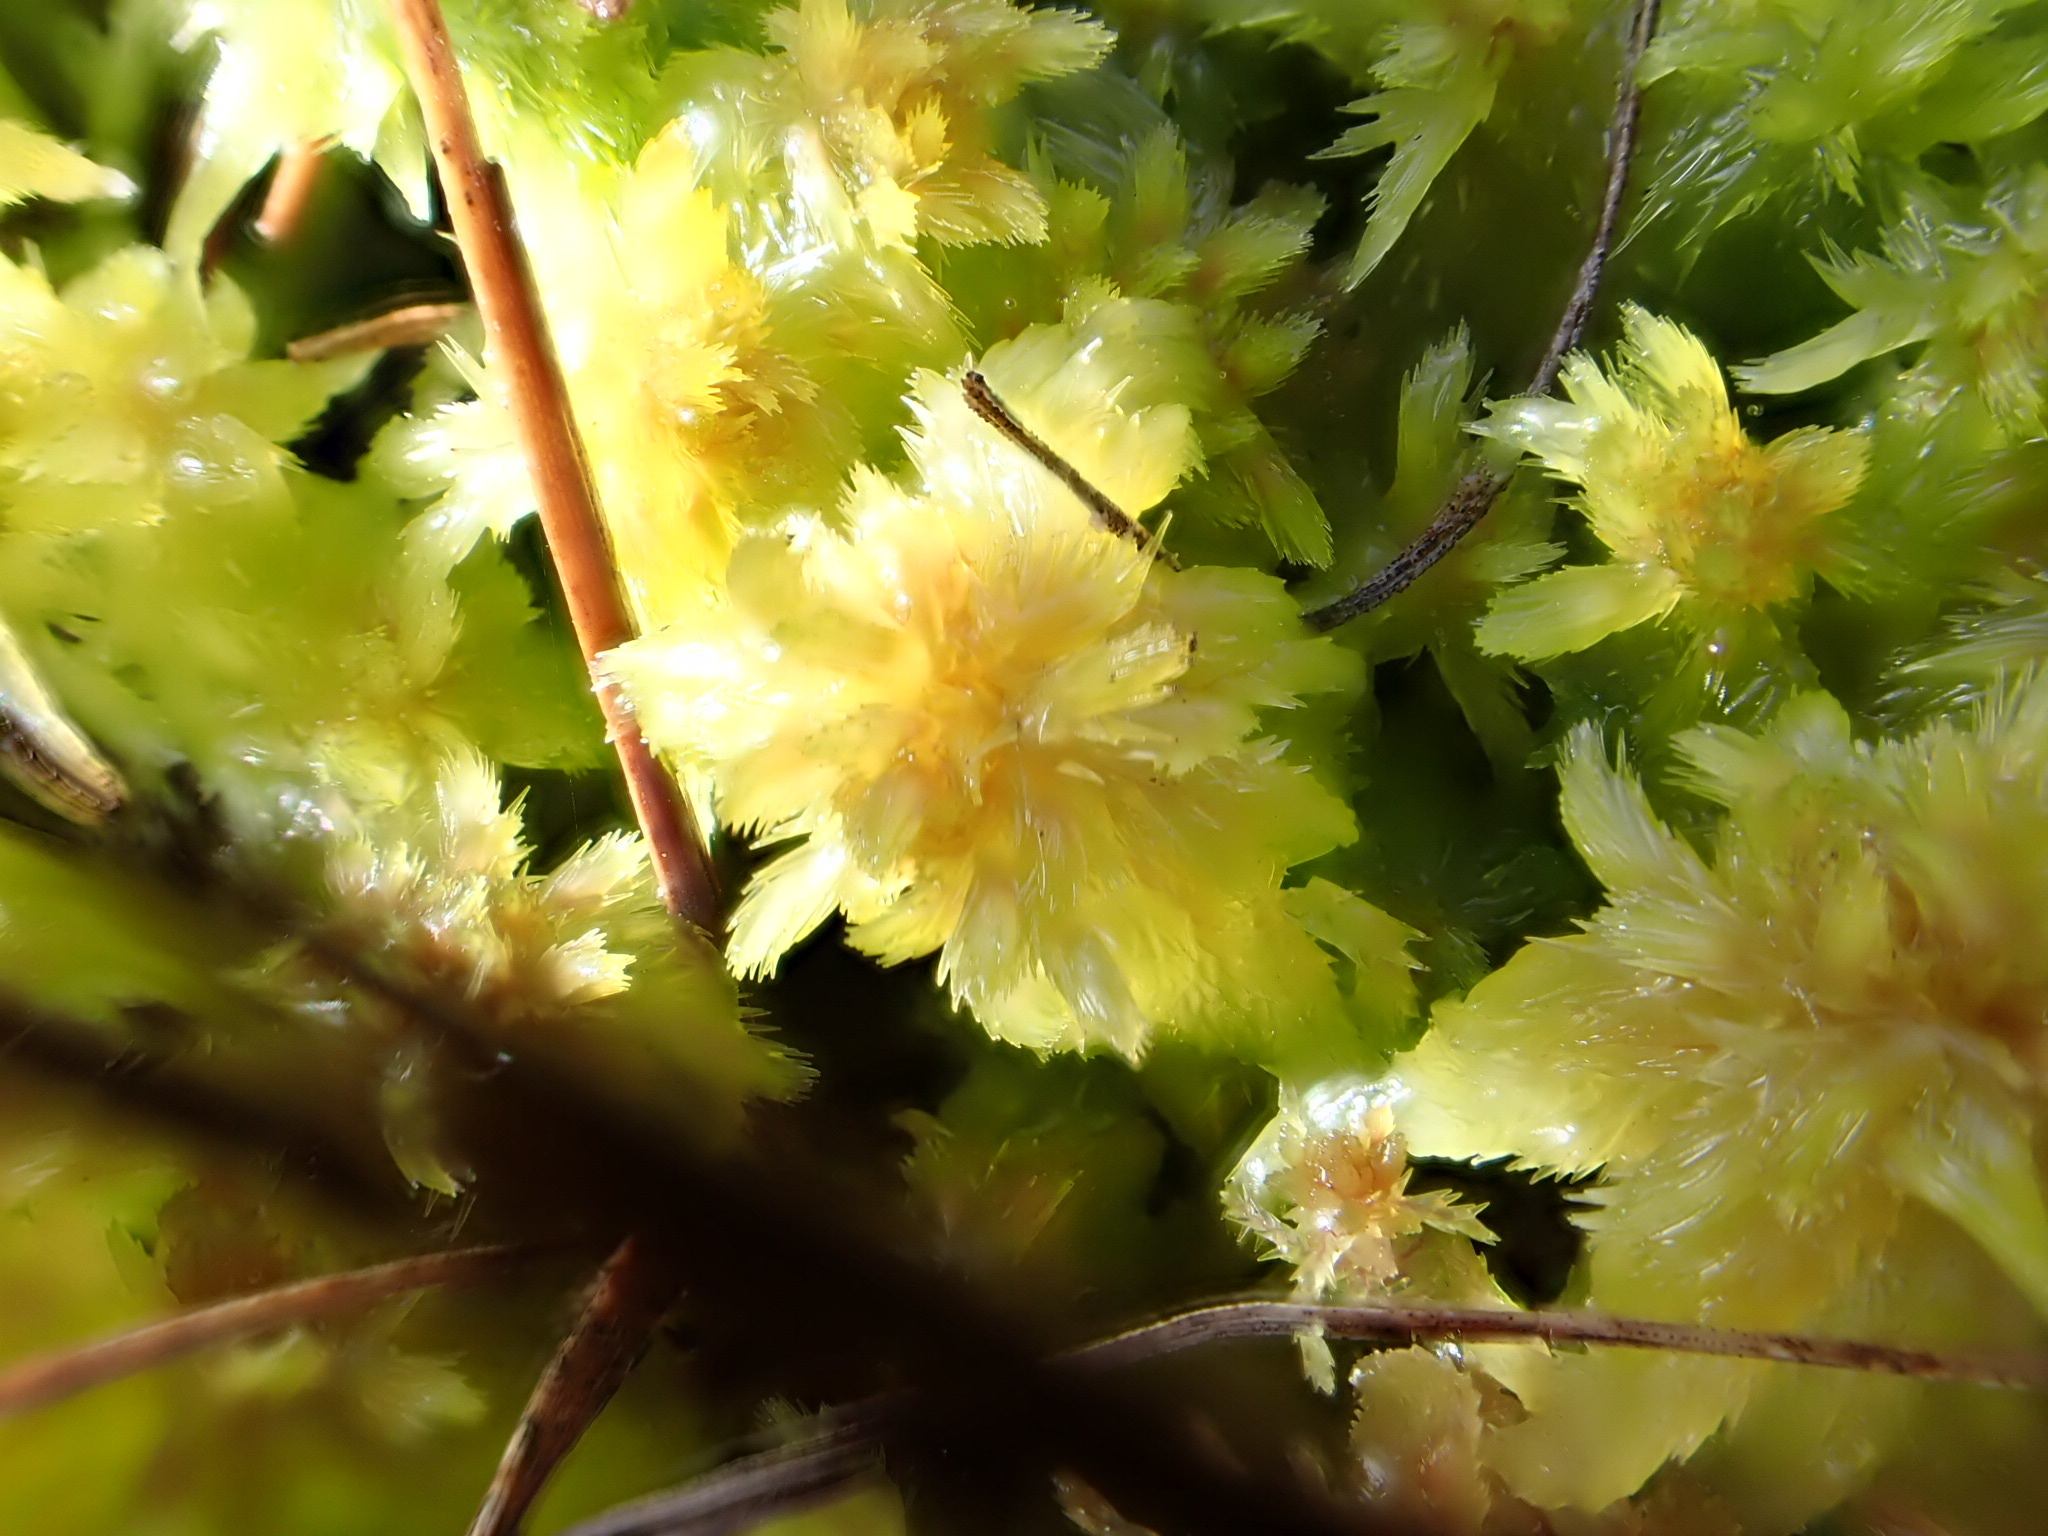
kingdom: Plantae
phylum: Bryophyta
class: Sphagnopsida
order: Sphagnales
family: Sphagnaceae
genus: Sphagnum
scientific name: Sphagnum cuspidatum
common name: Feathery peat moss
